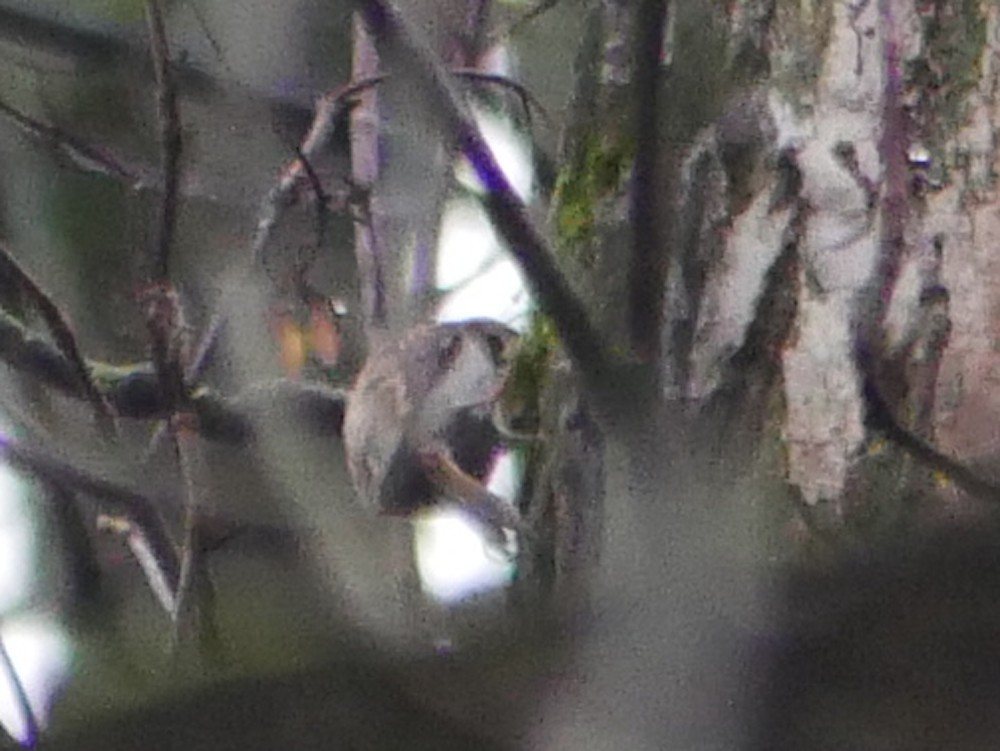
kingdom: Animalia
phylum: Chordata
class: Aves
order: Passeriformes
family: Certhiidae
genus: Certhia
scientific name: Certhia
